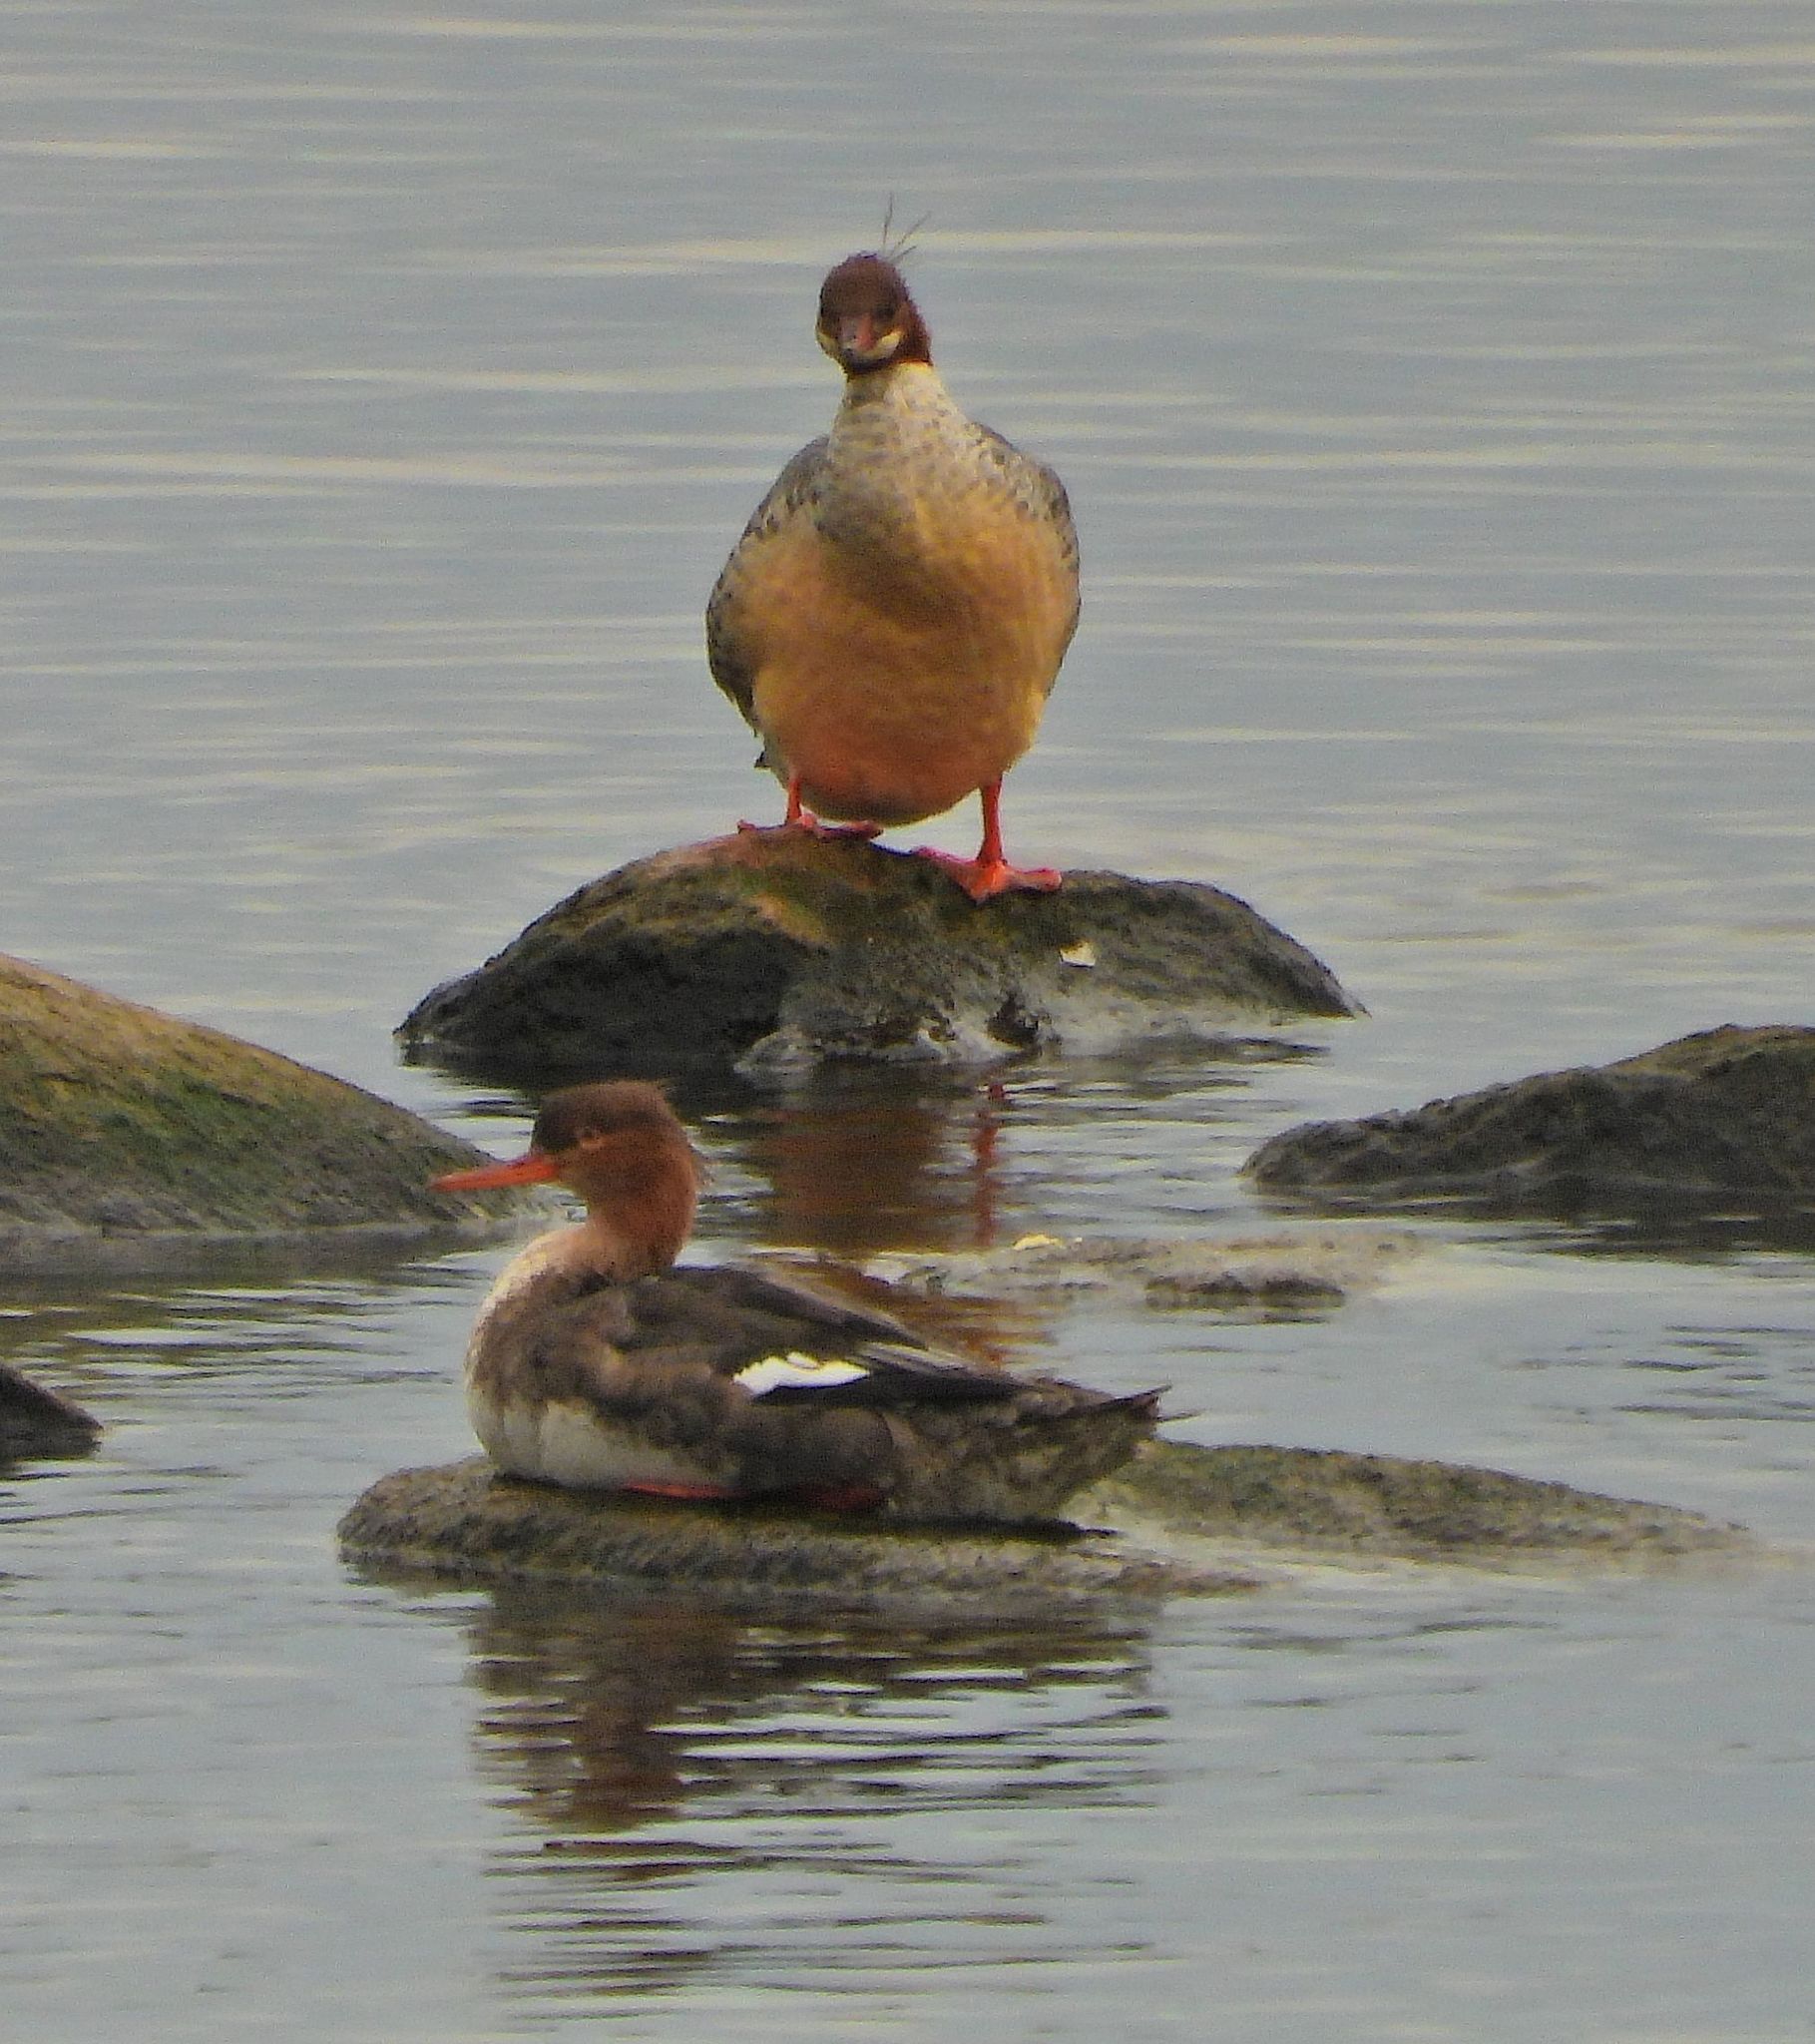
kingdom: Animalia
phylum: Chordata
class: Aves
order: Anseriformes
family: Anatidae
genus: Mergus
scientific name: Mergus serrator
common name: Red-breasted merganser
